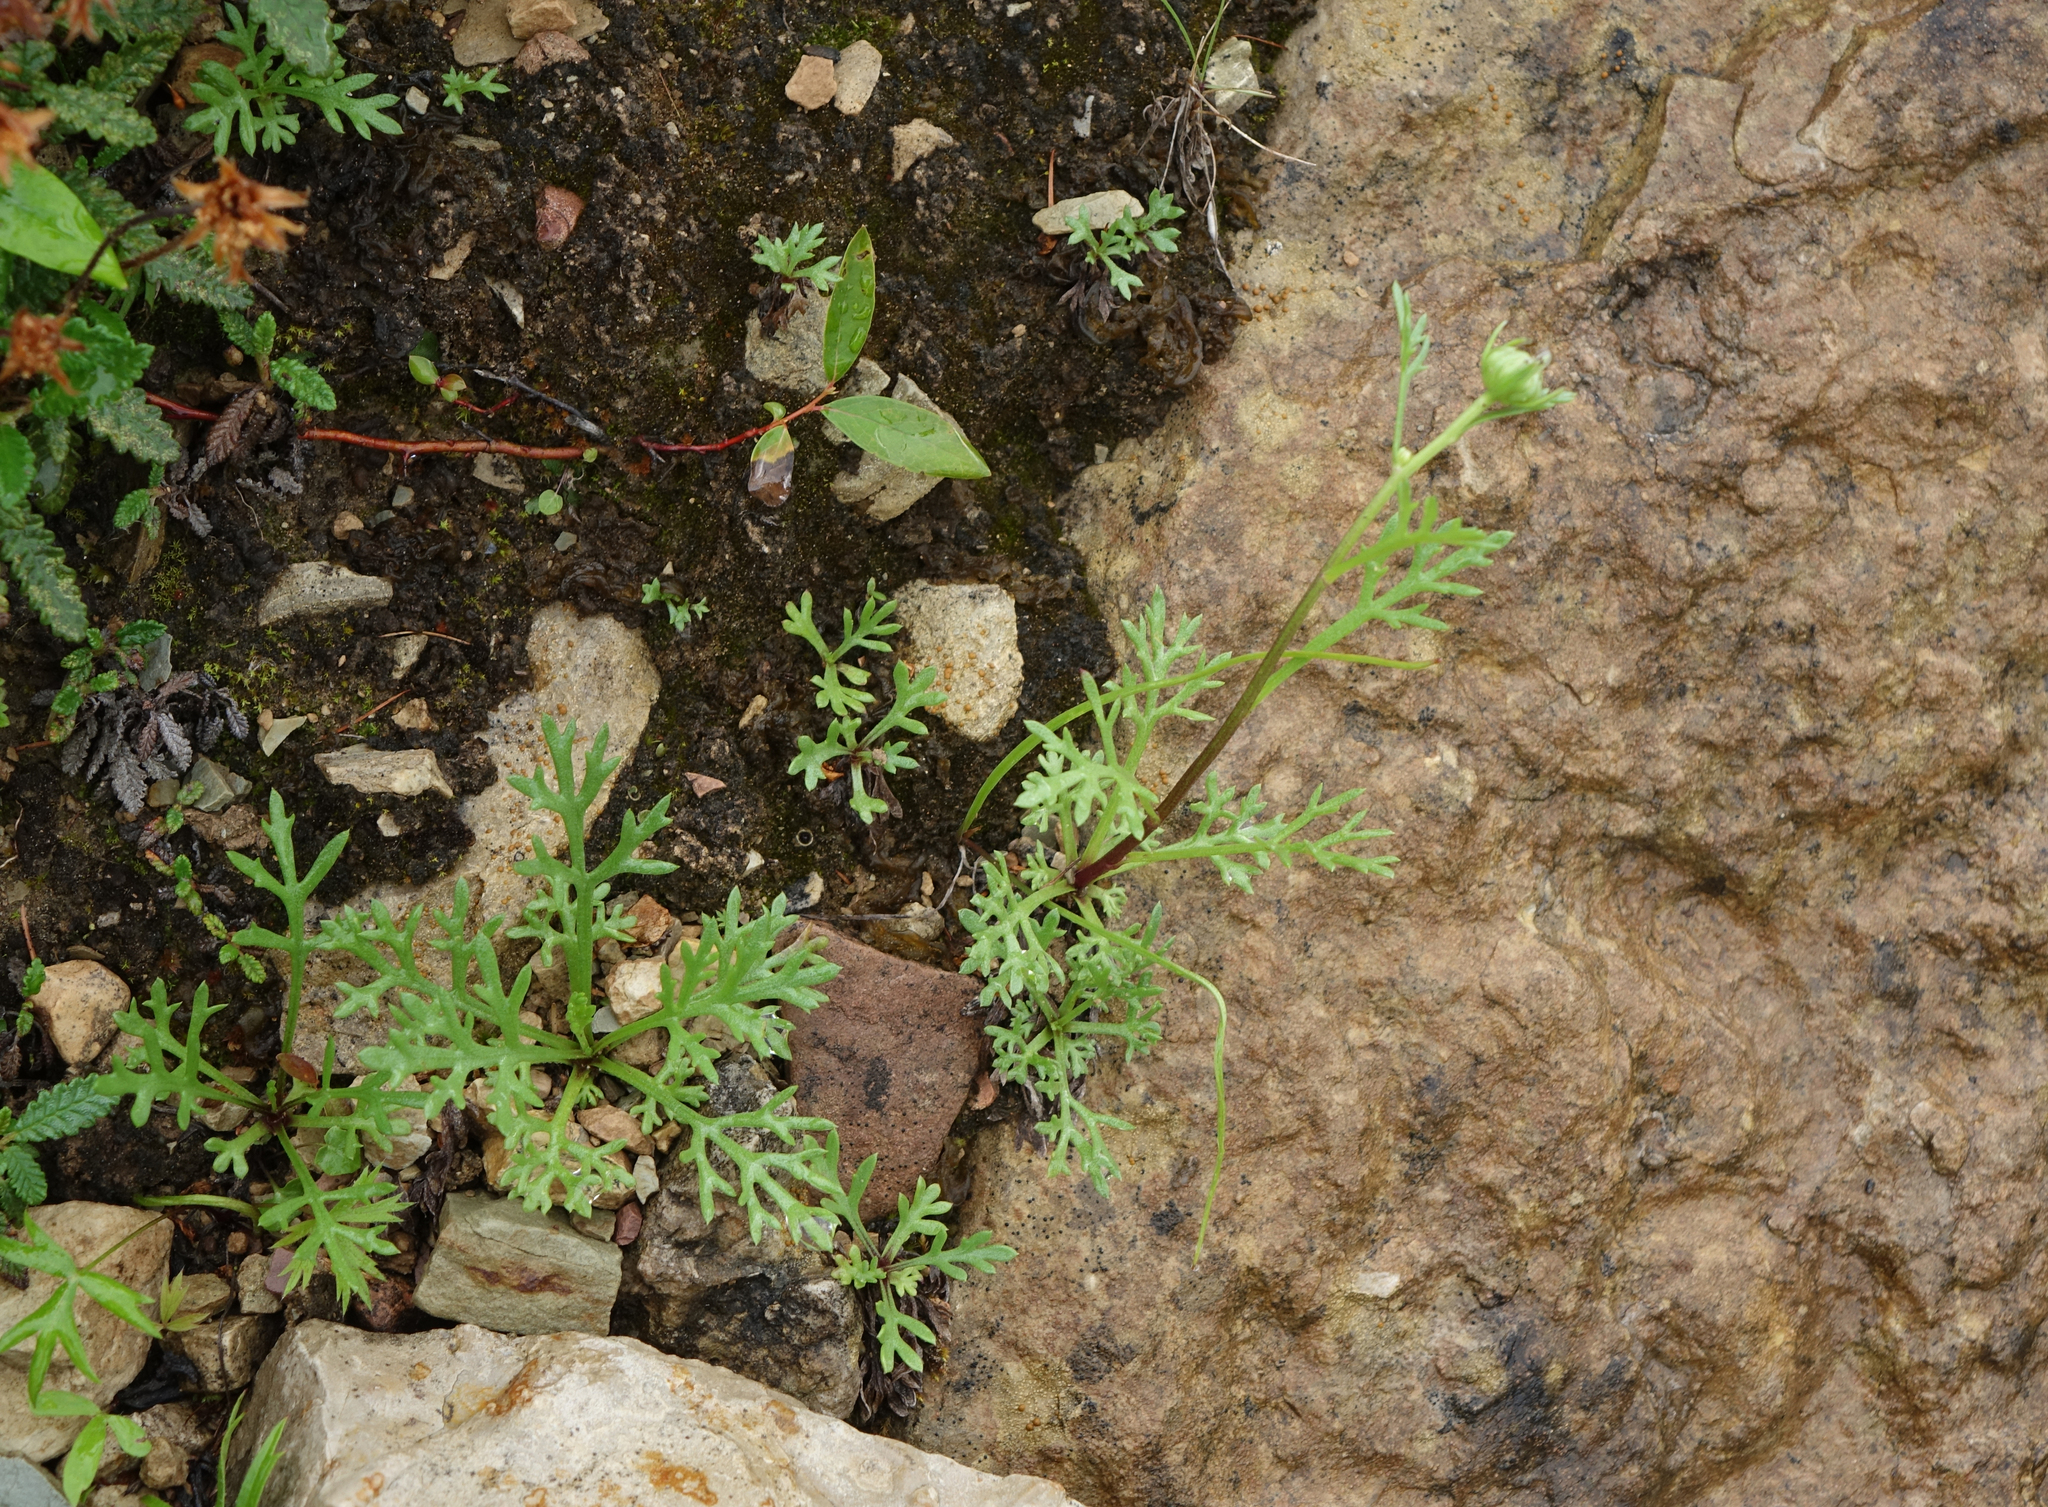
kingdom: Plantae
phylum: Tracheophyta
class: Magnoliopsida
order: Asterales
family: Asteraceae
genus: Chrysanthemum
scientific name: Chrysanthemum zawadzkii
